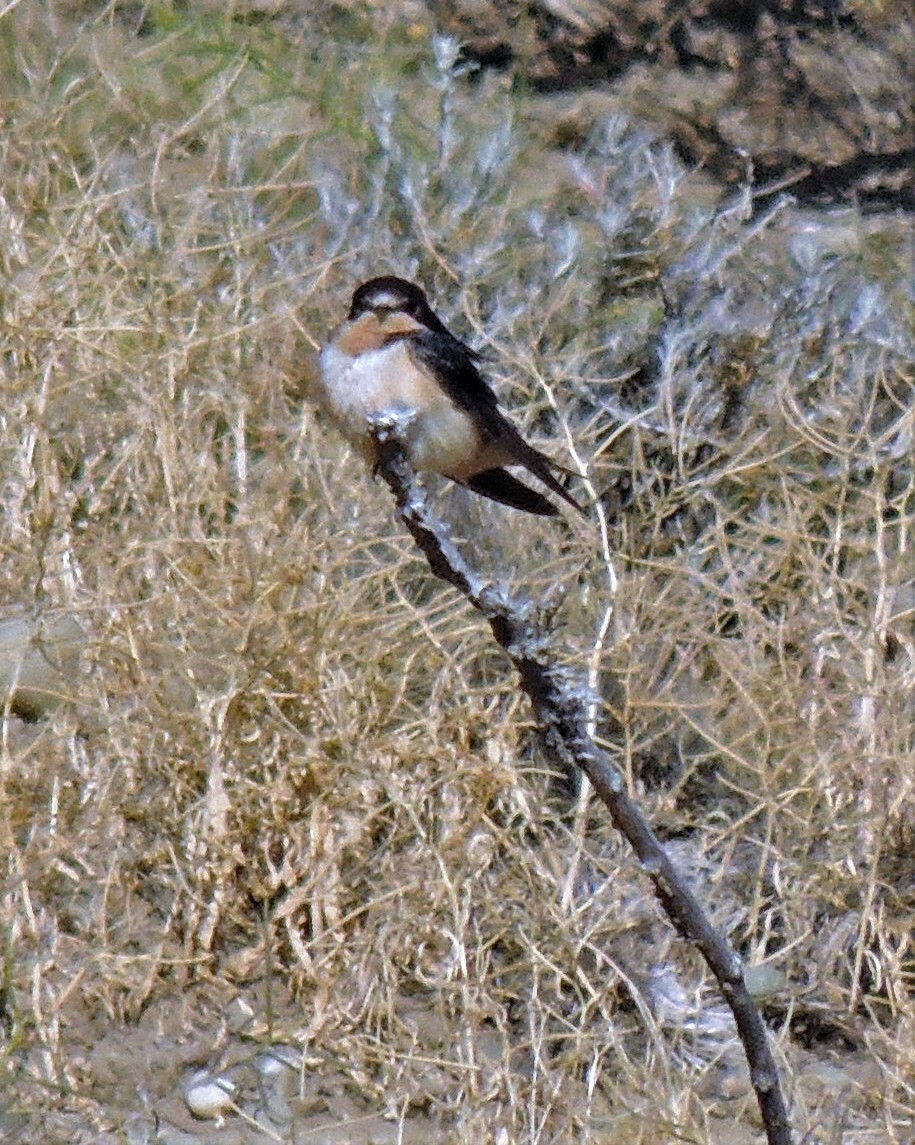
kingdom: Animalia
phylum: Chordata
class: Aves
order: Passeriformes
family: Hirundinidae
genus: Hirundo
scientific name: Hirundo rustica
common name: Barn swallow
